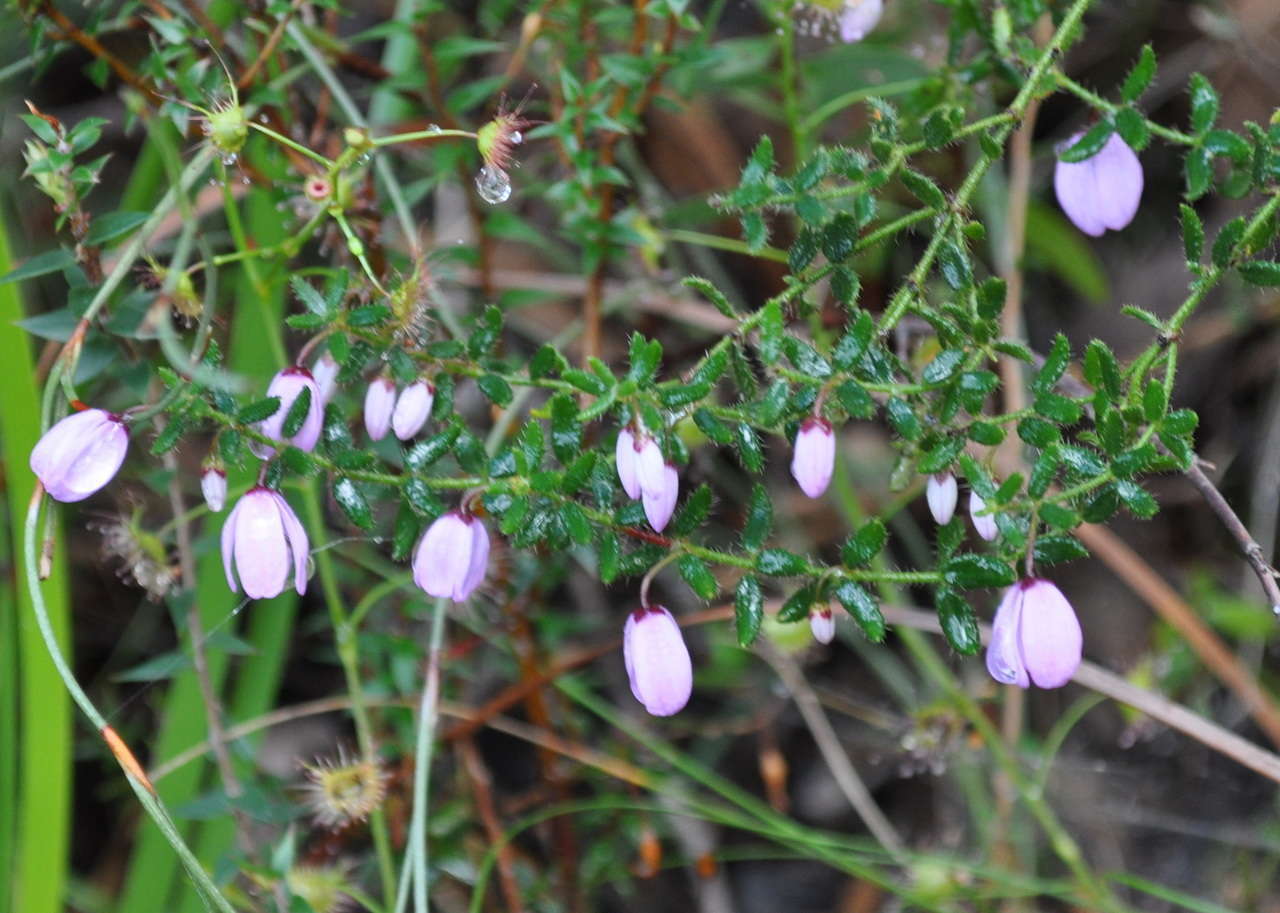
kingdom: Plantae
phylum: Tracheophyta
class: Magnoliopsida
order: Oxalidales
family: Elaeocarpaceae
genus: Tetratheca
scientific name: Tetratheca ciliata
